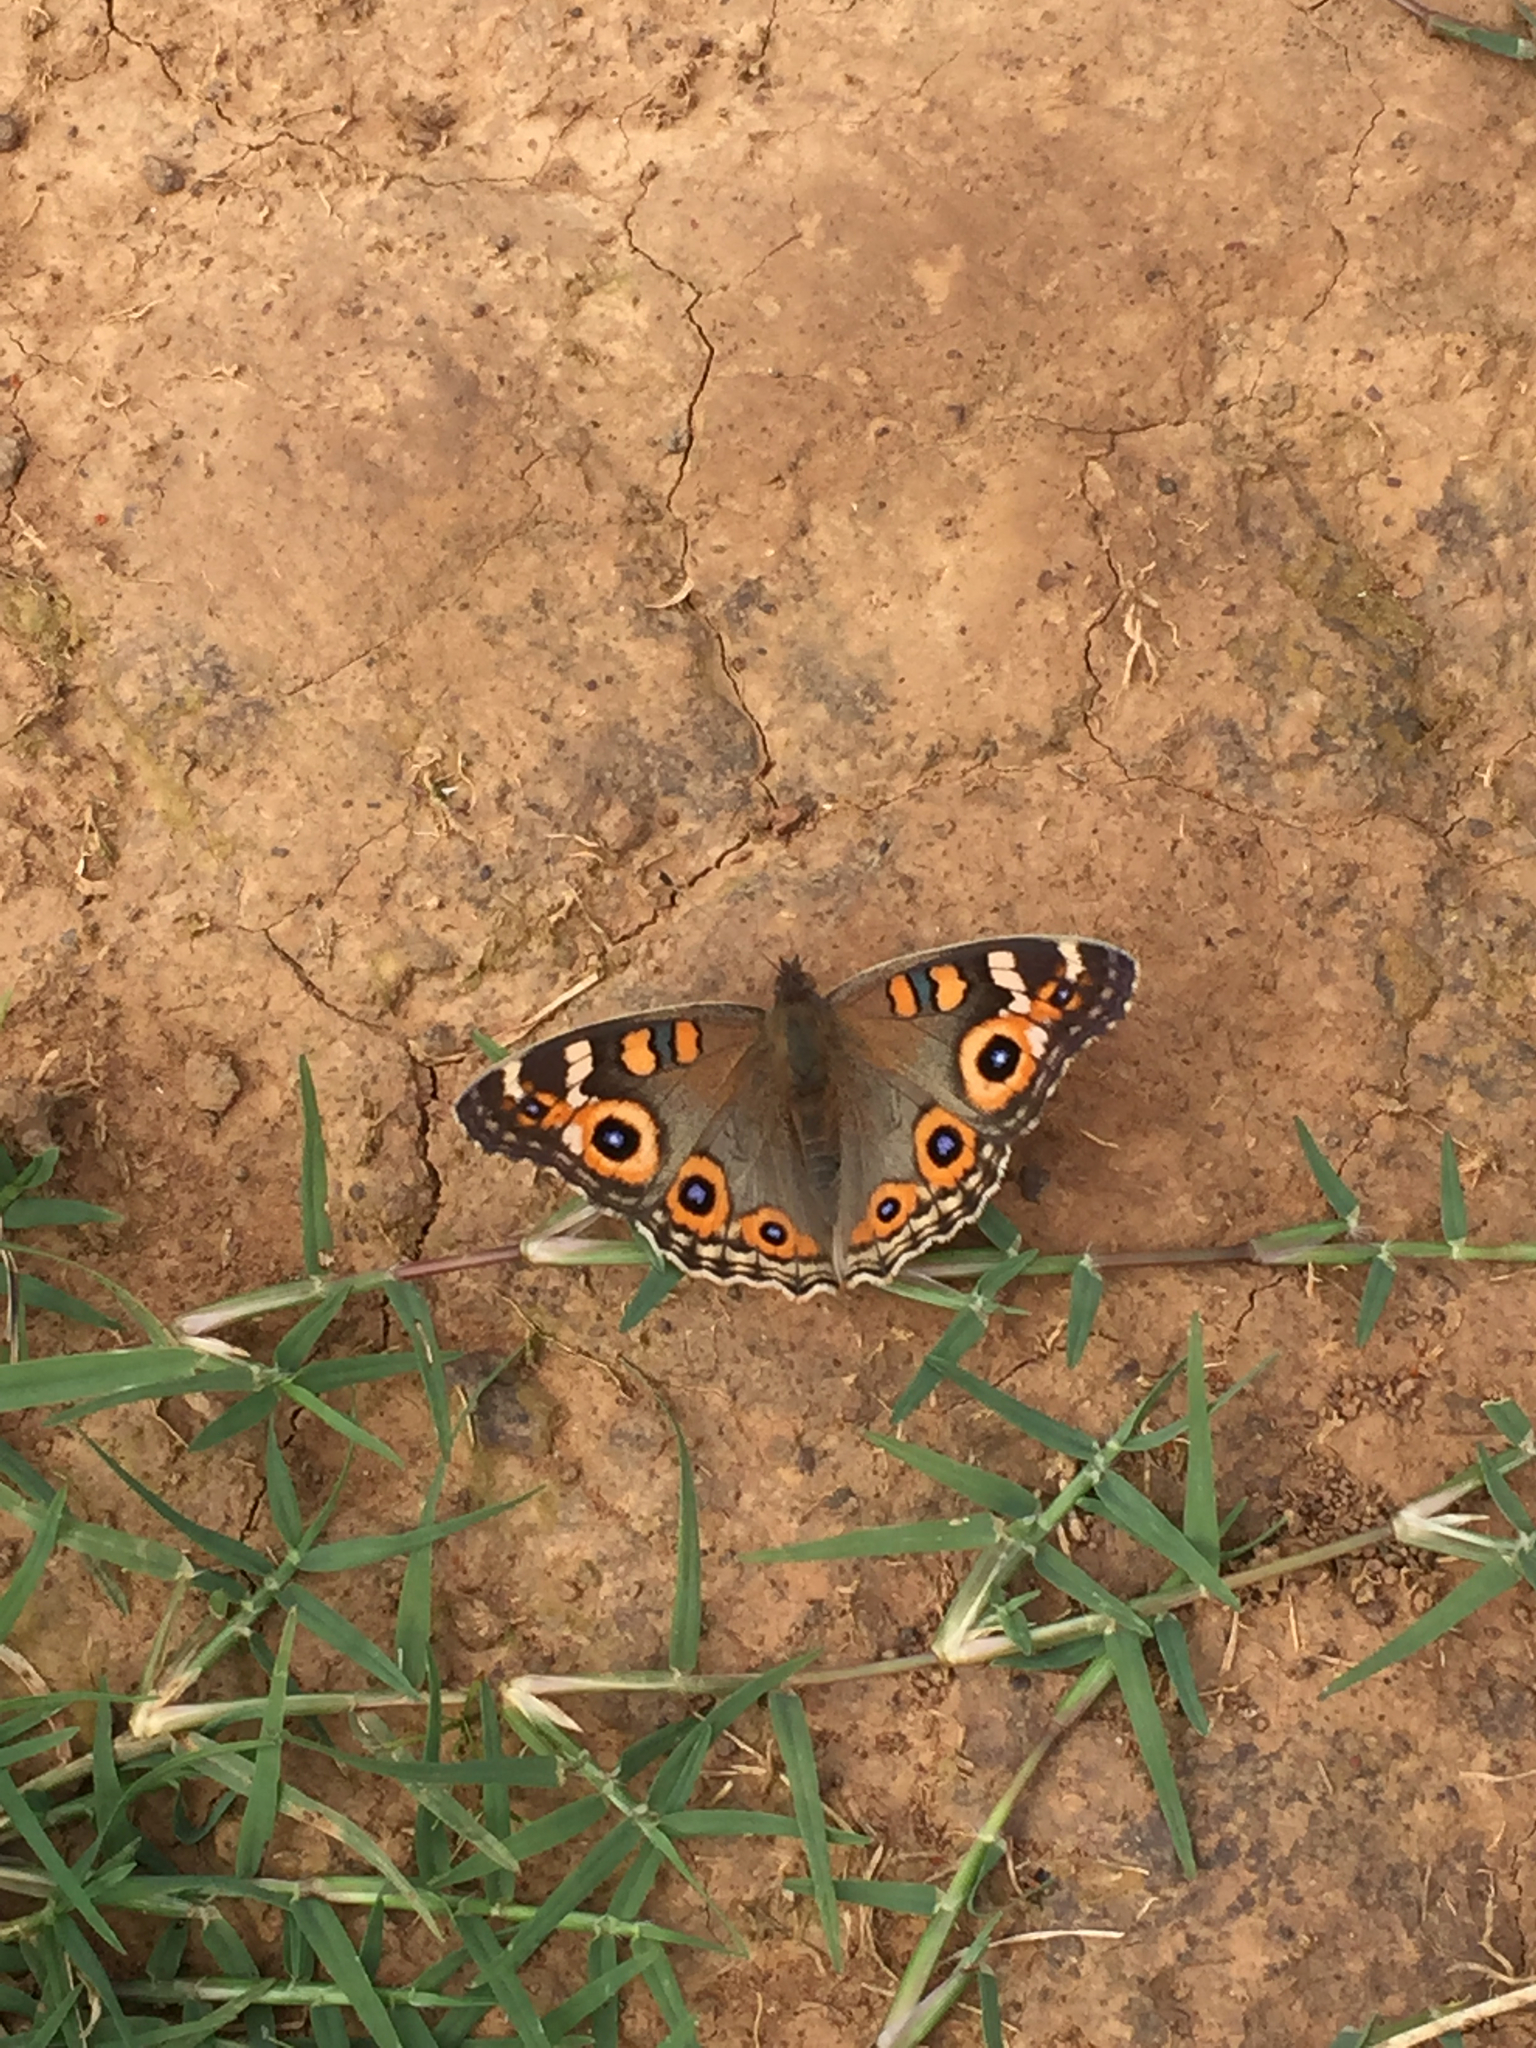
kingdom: Animalia
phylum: Arthropoda
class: Insecta
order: Lepidoptera
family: Nymphalidae
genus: Junonia
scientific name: Junonia villida
